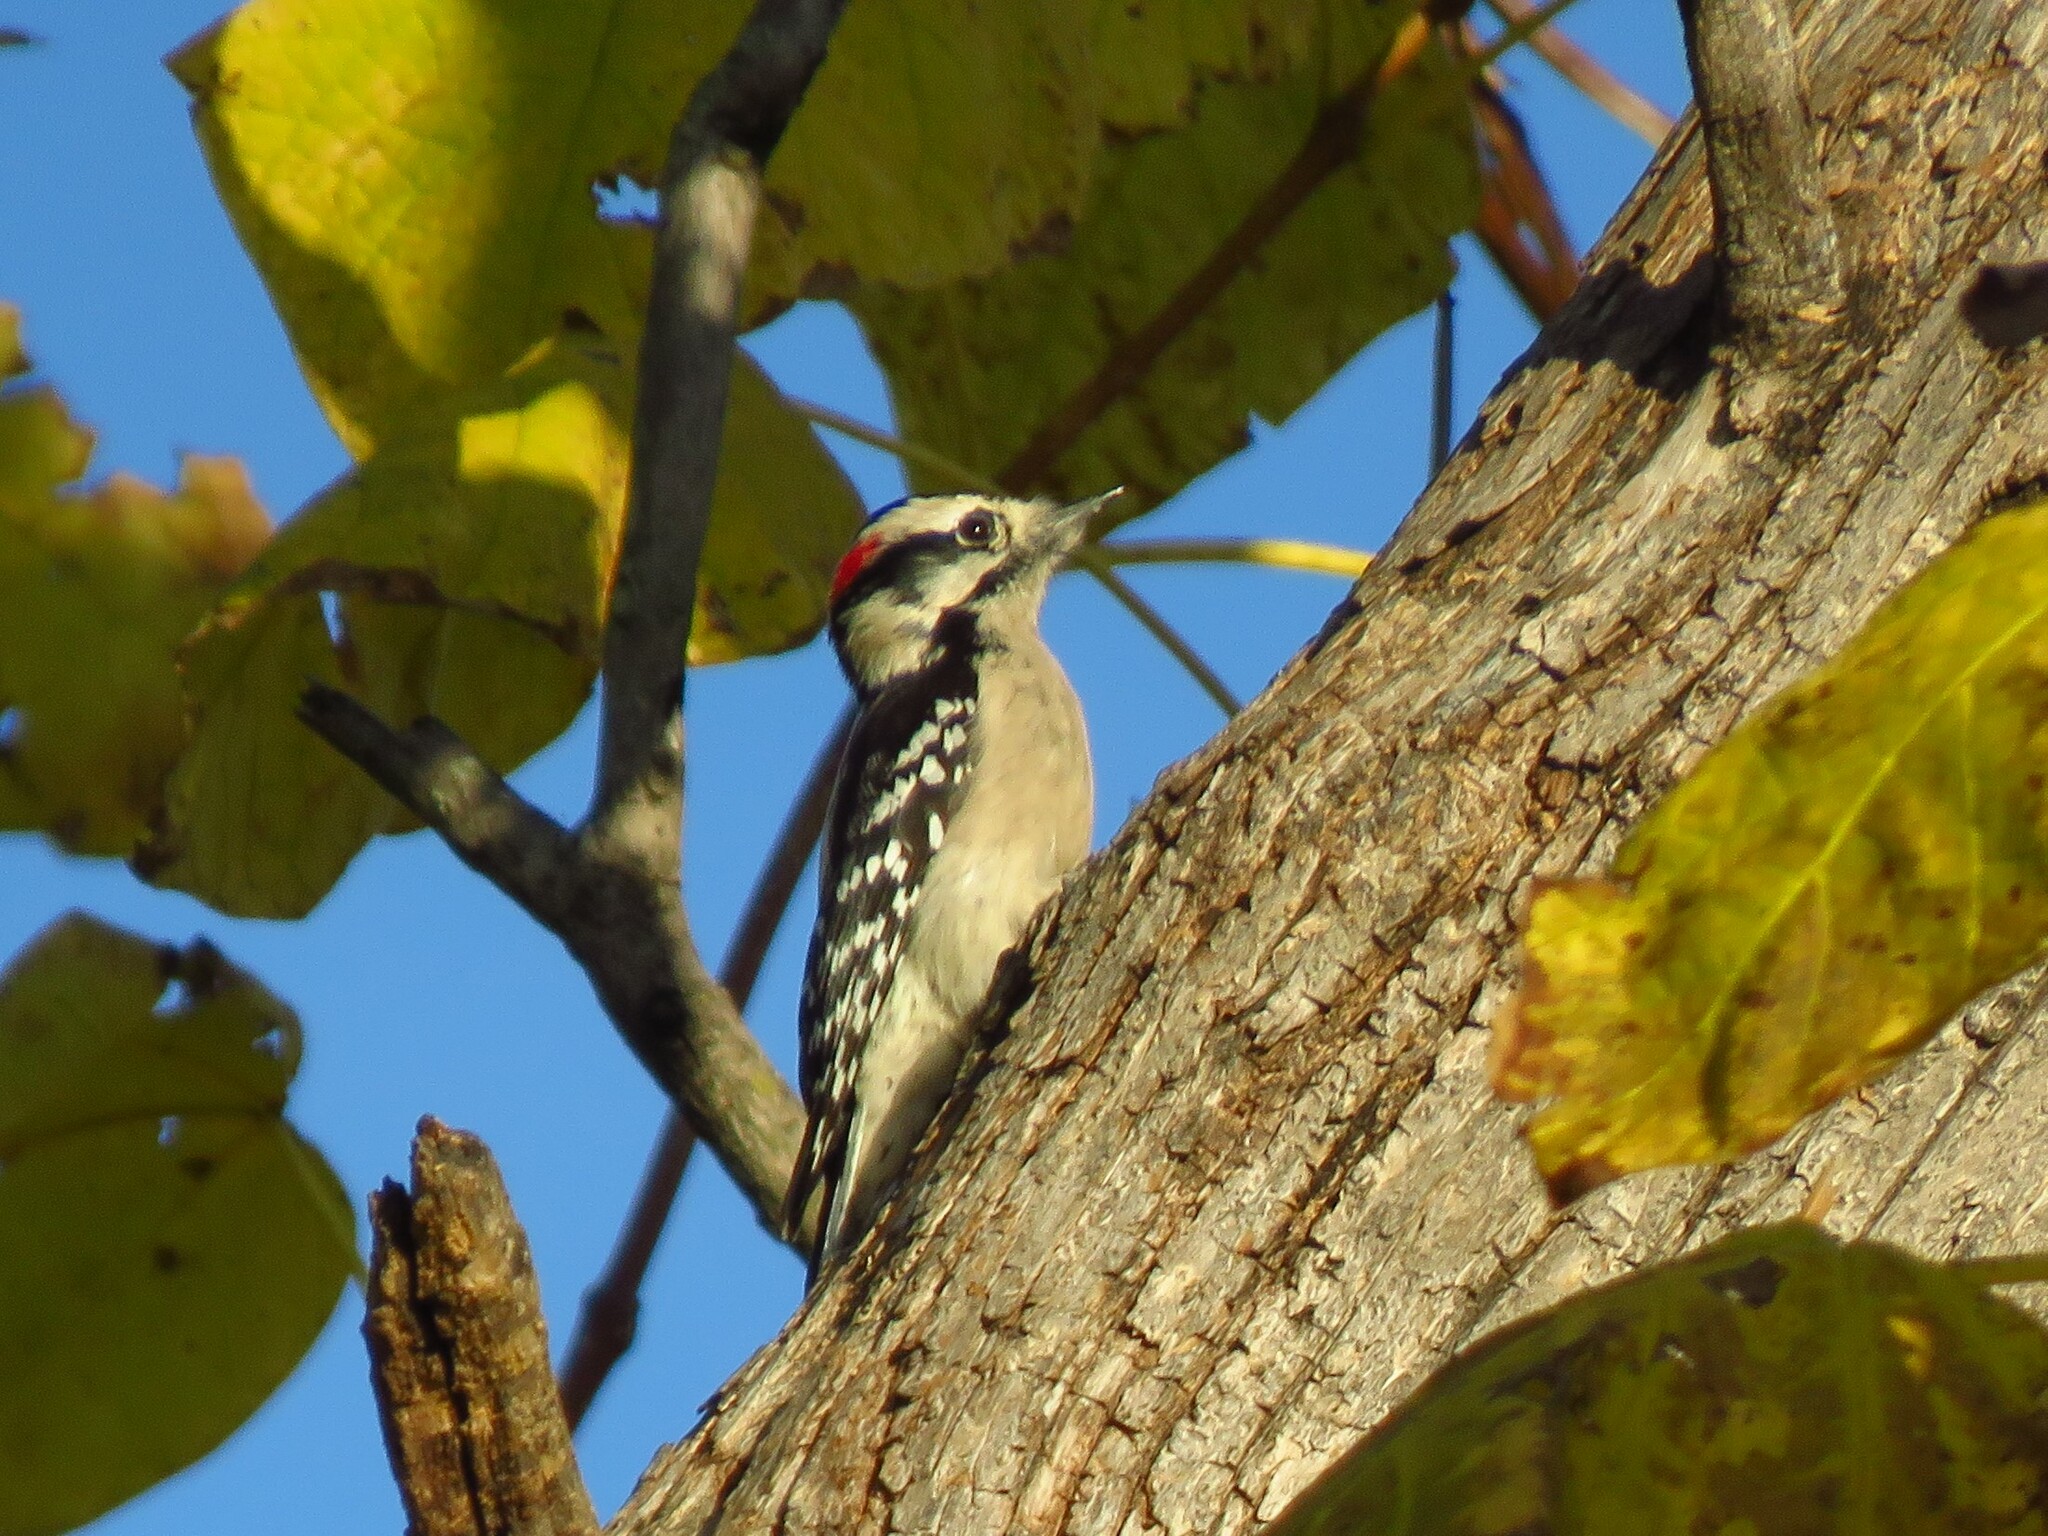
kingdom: Animalia
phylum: Chordata
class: Aves
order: Piciformes
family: Picidae
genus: Dryobates
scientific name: Dryobates pubescens
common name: Downy woodpecker
